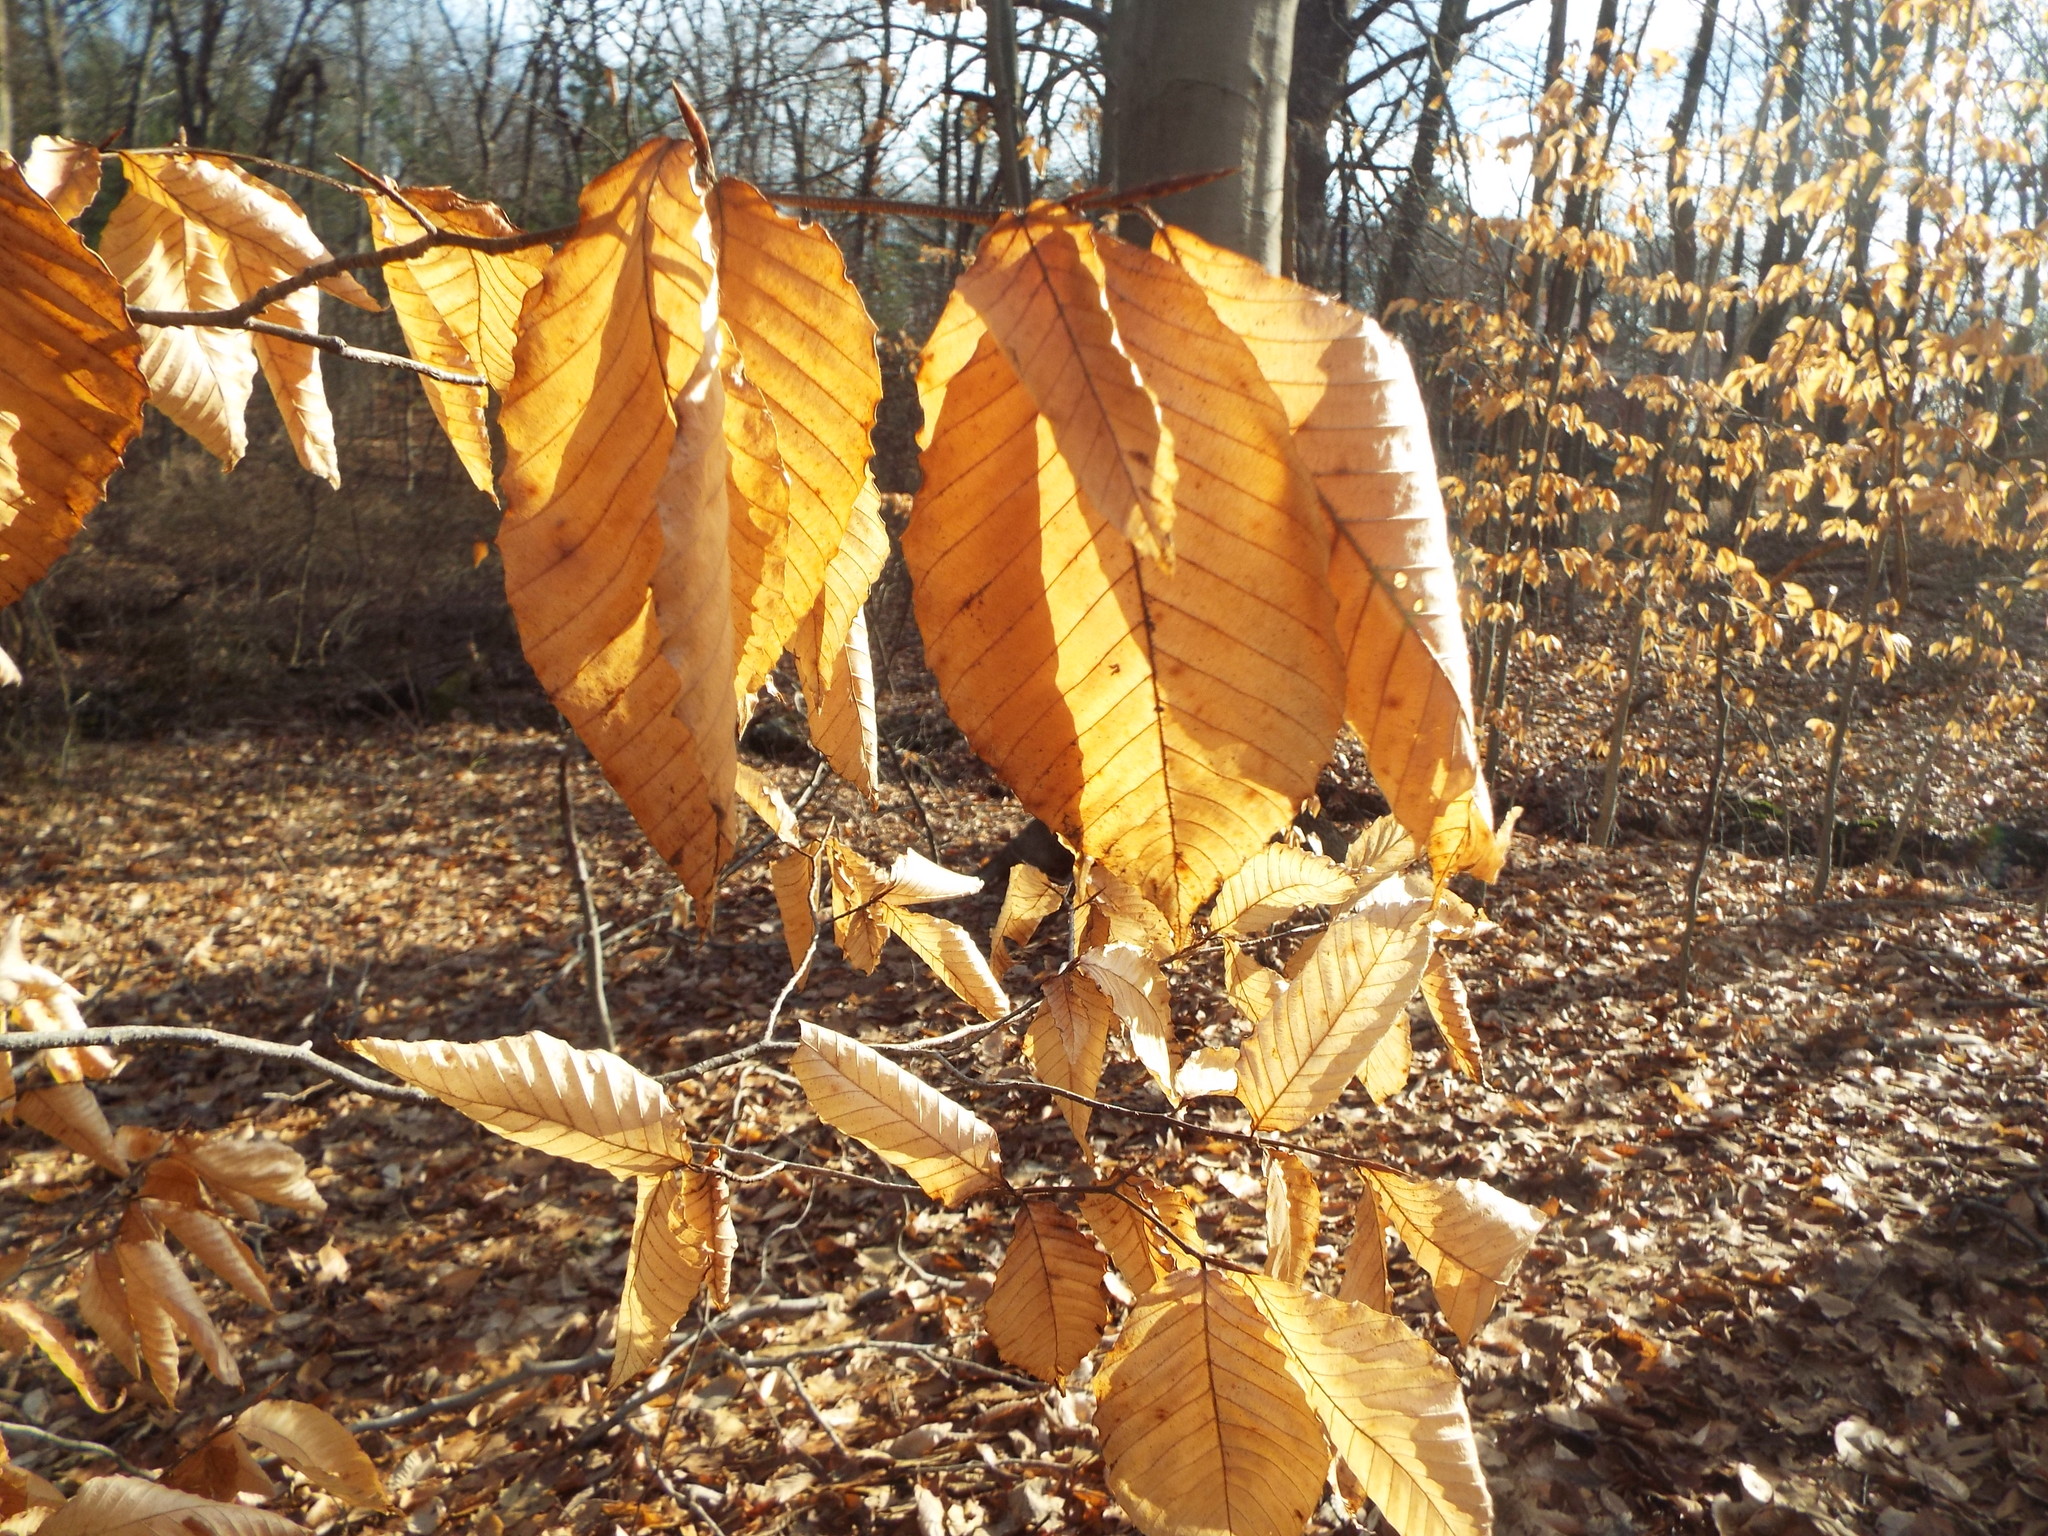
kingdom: Plantae
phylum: Tracheophyta
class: Magnoliopsida
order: Fagales
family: Fagaceae
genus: Fagus
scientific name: Fagus grandifolia
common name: American beech
